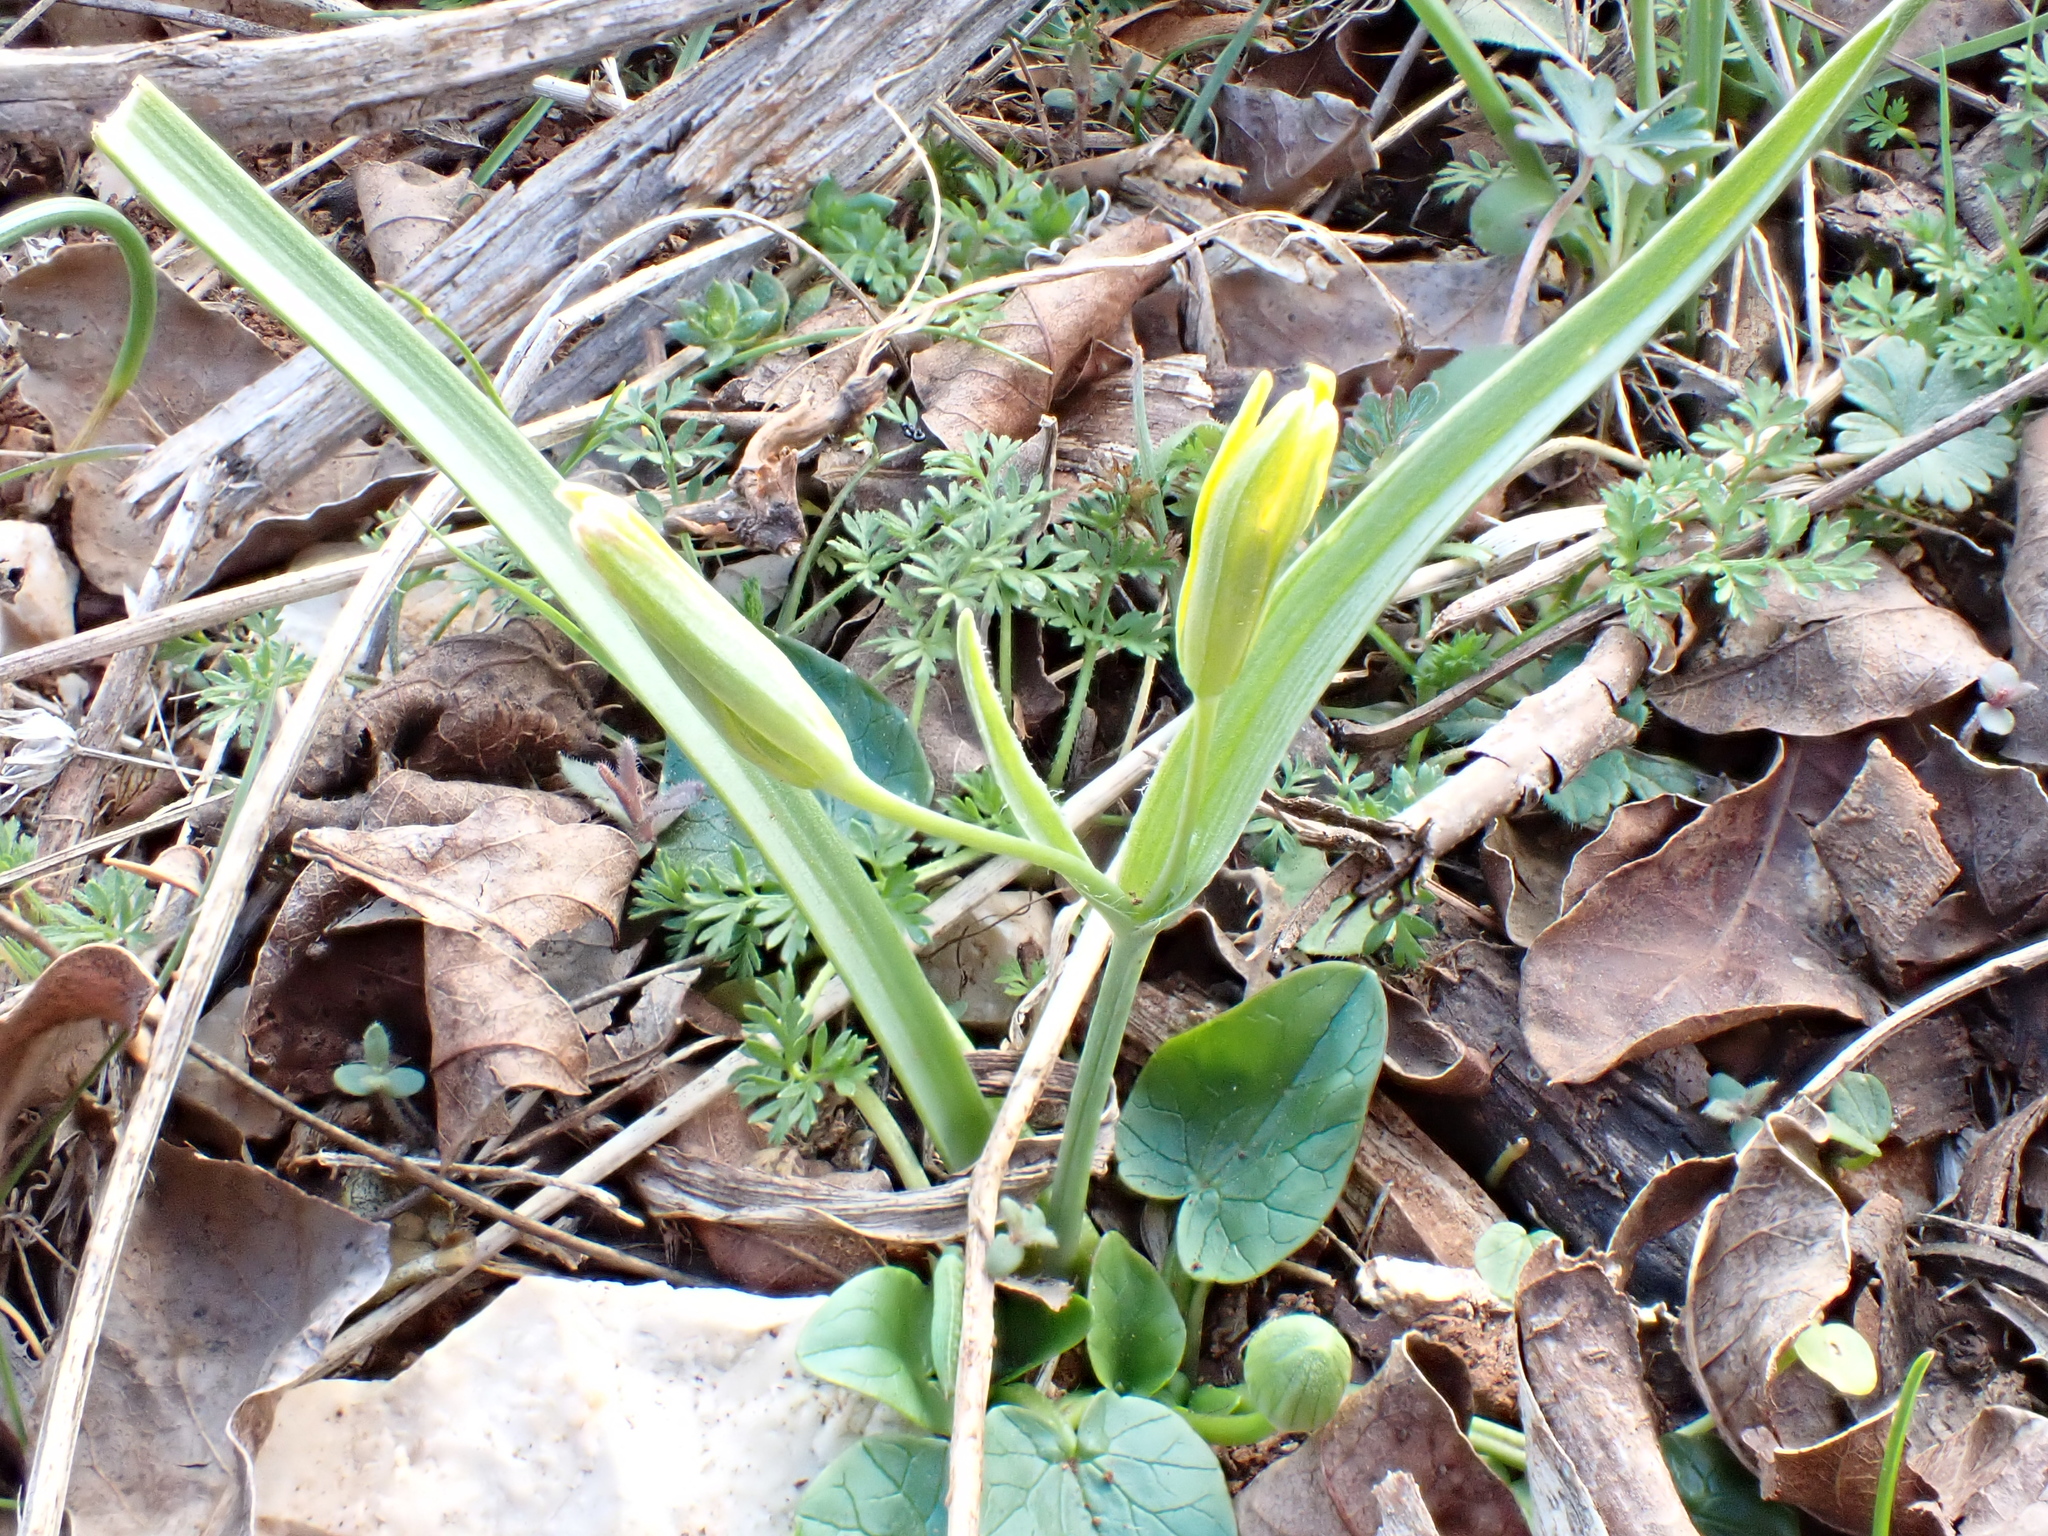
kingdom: Plantae
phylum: Tracheophyta
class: Liliopsida
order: Liliales
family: Liliaceae
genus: Gagea
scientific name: Gagea pratensis
